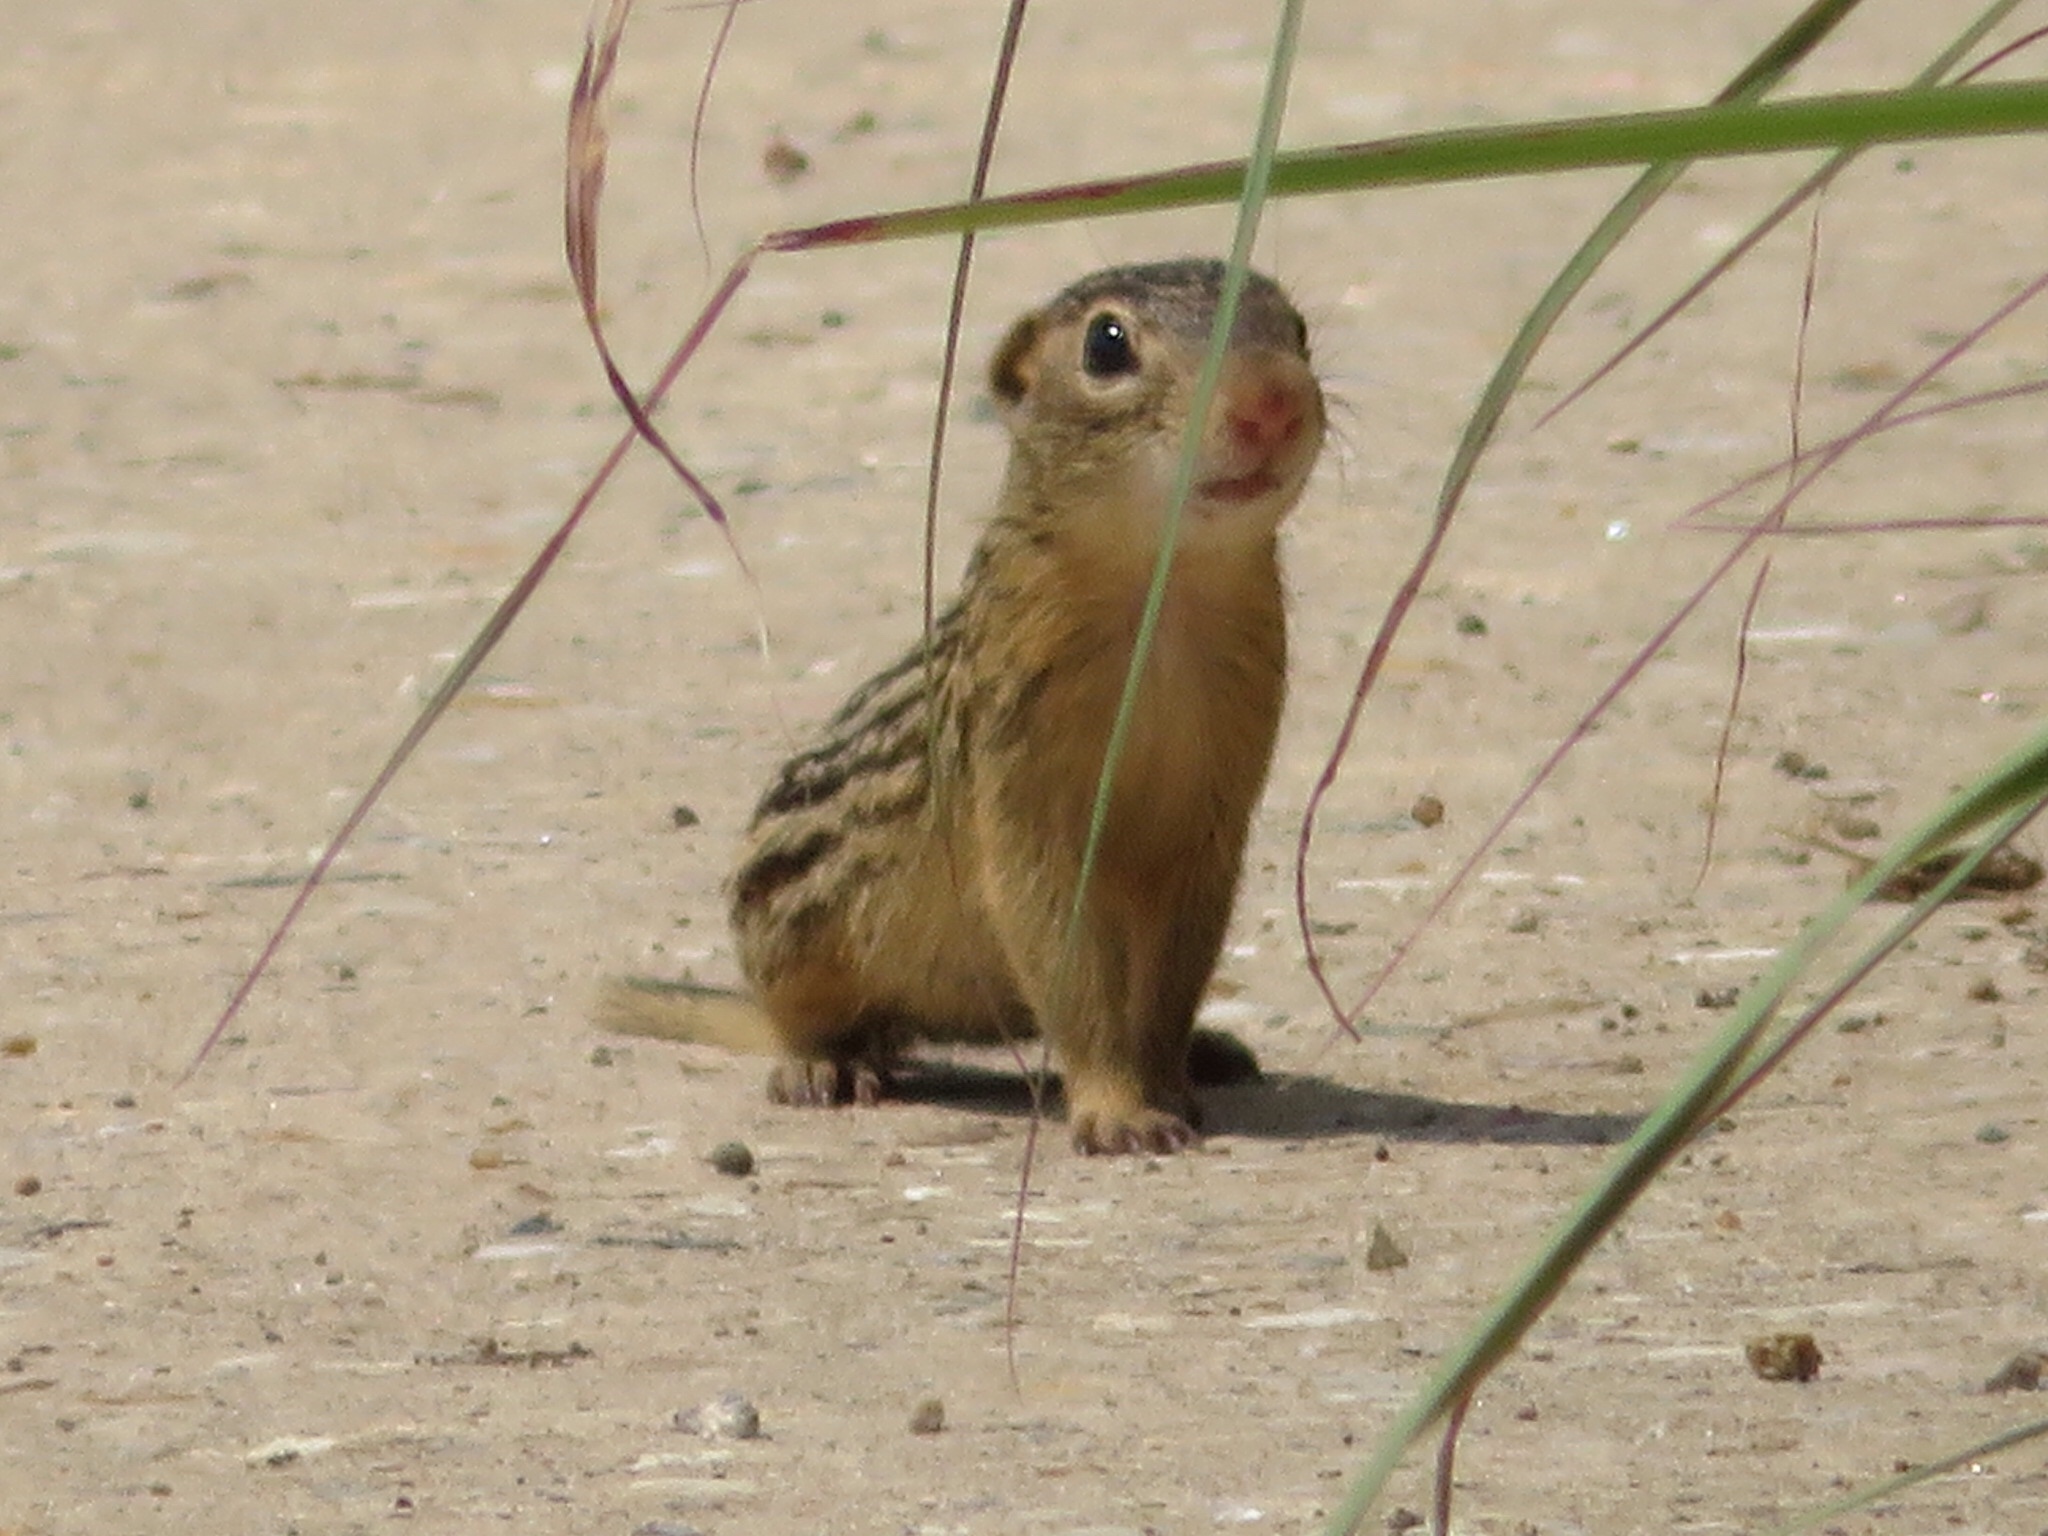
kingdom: Animalia
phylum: Chordata
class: Mammalia
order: Rodentia
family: Sciuridae
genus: Ictidomys
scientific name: Ictidomys tridecemlineatus
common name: Thirteen-lined ground squirrel
